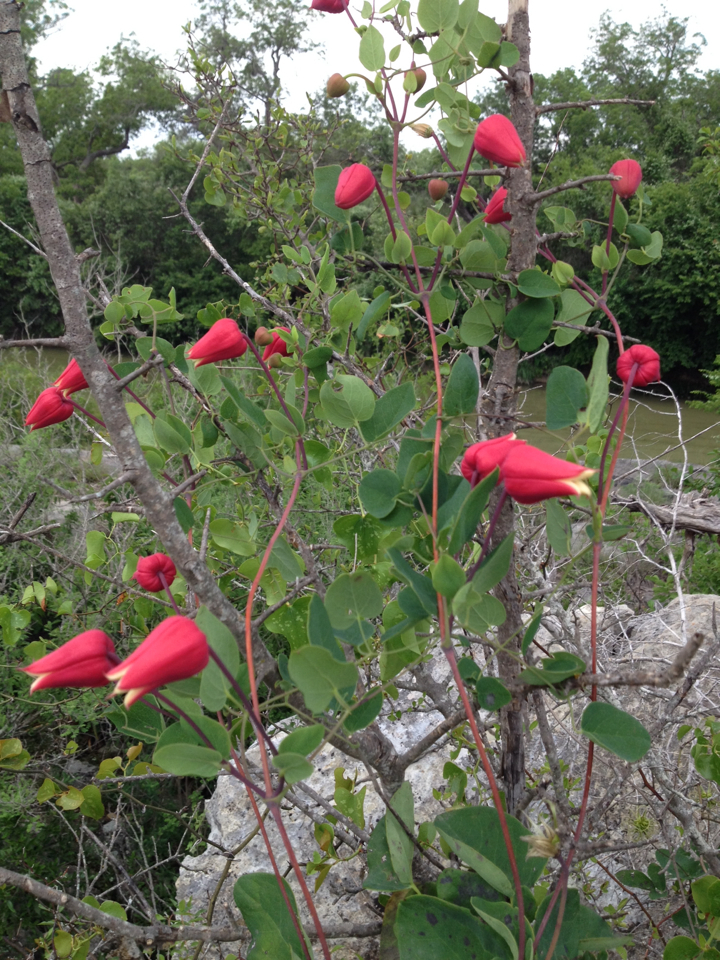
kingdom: Plantae
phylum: Tracheophyta
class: Magnoliopsida
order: Ranunculales
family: Ranunculaceae
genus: Clematis
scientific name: Clematis texensis
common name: Crimson clematis
